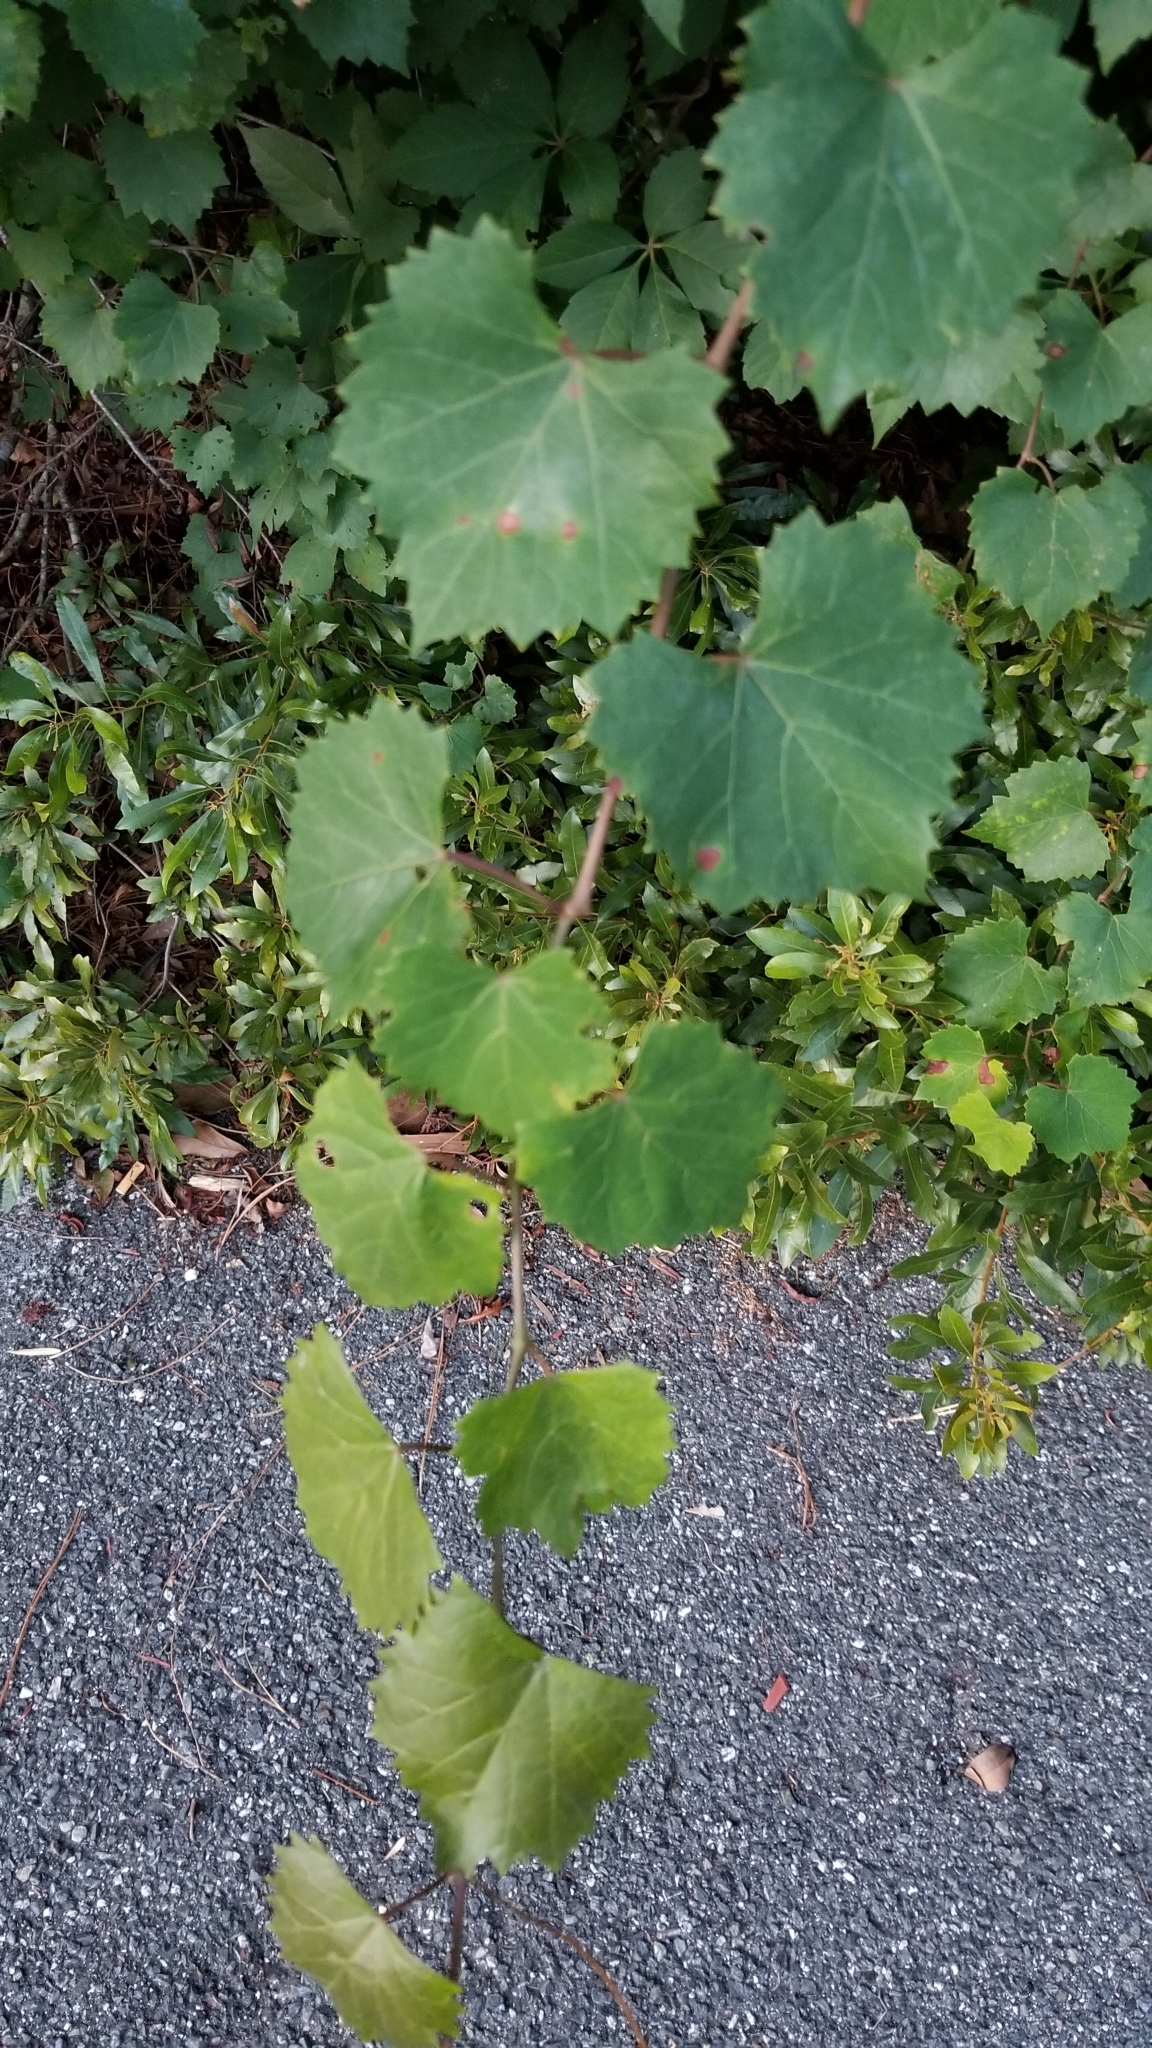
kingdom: Plantae
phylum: Tracheophyta
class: Magnoliopsida
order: Vitales
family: Vitaceae
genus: Vitis
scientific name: Vitis rotundifolia
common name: Muscadine grape
